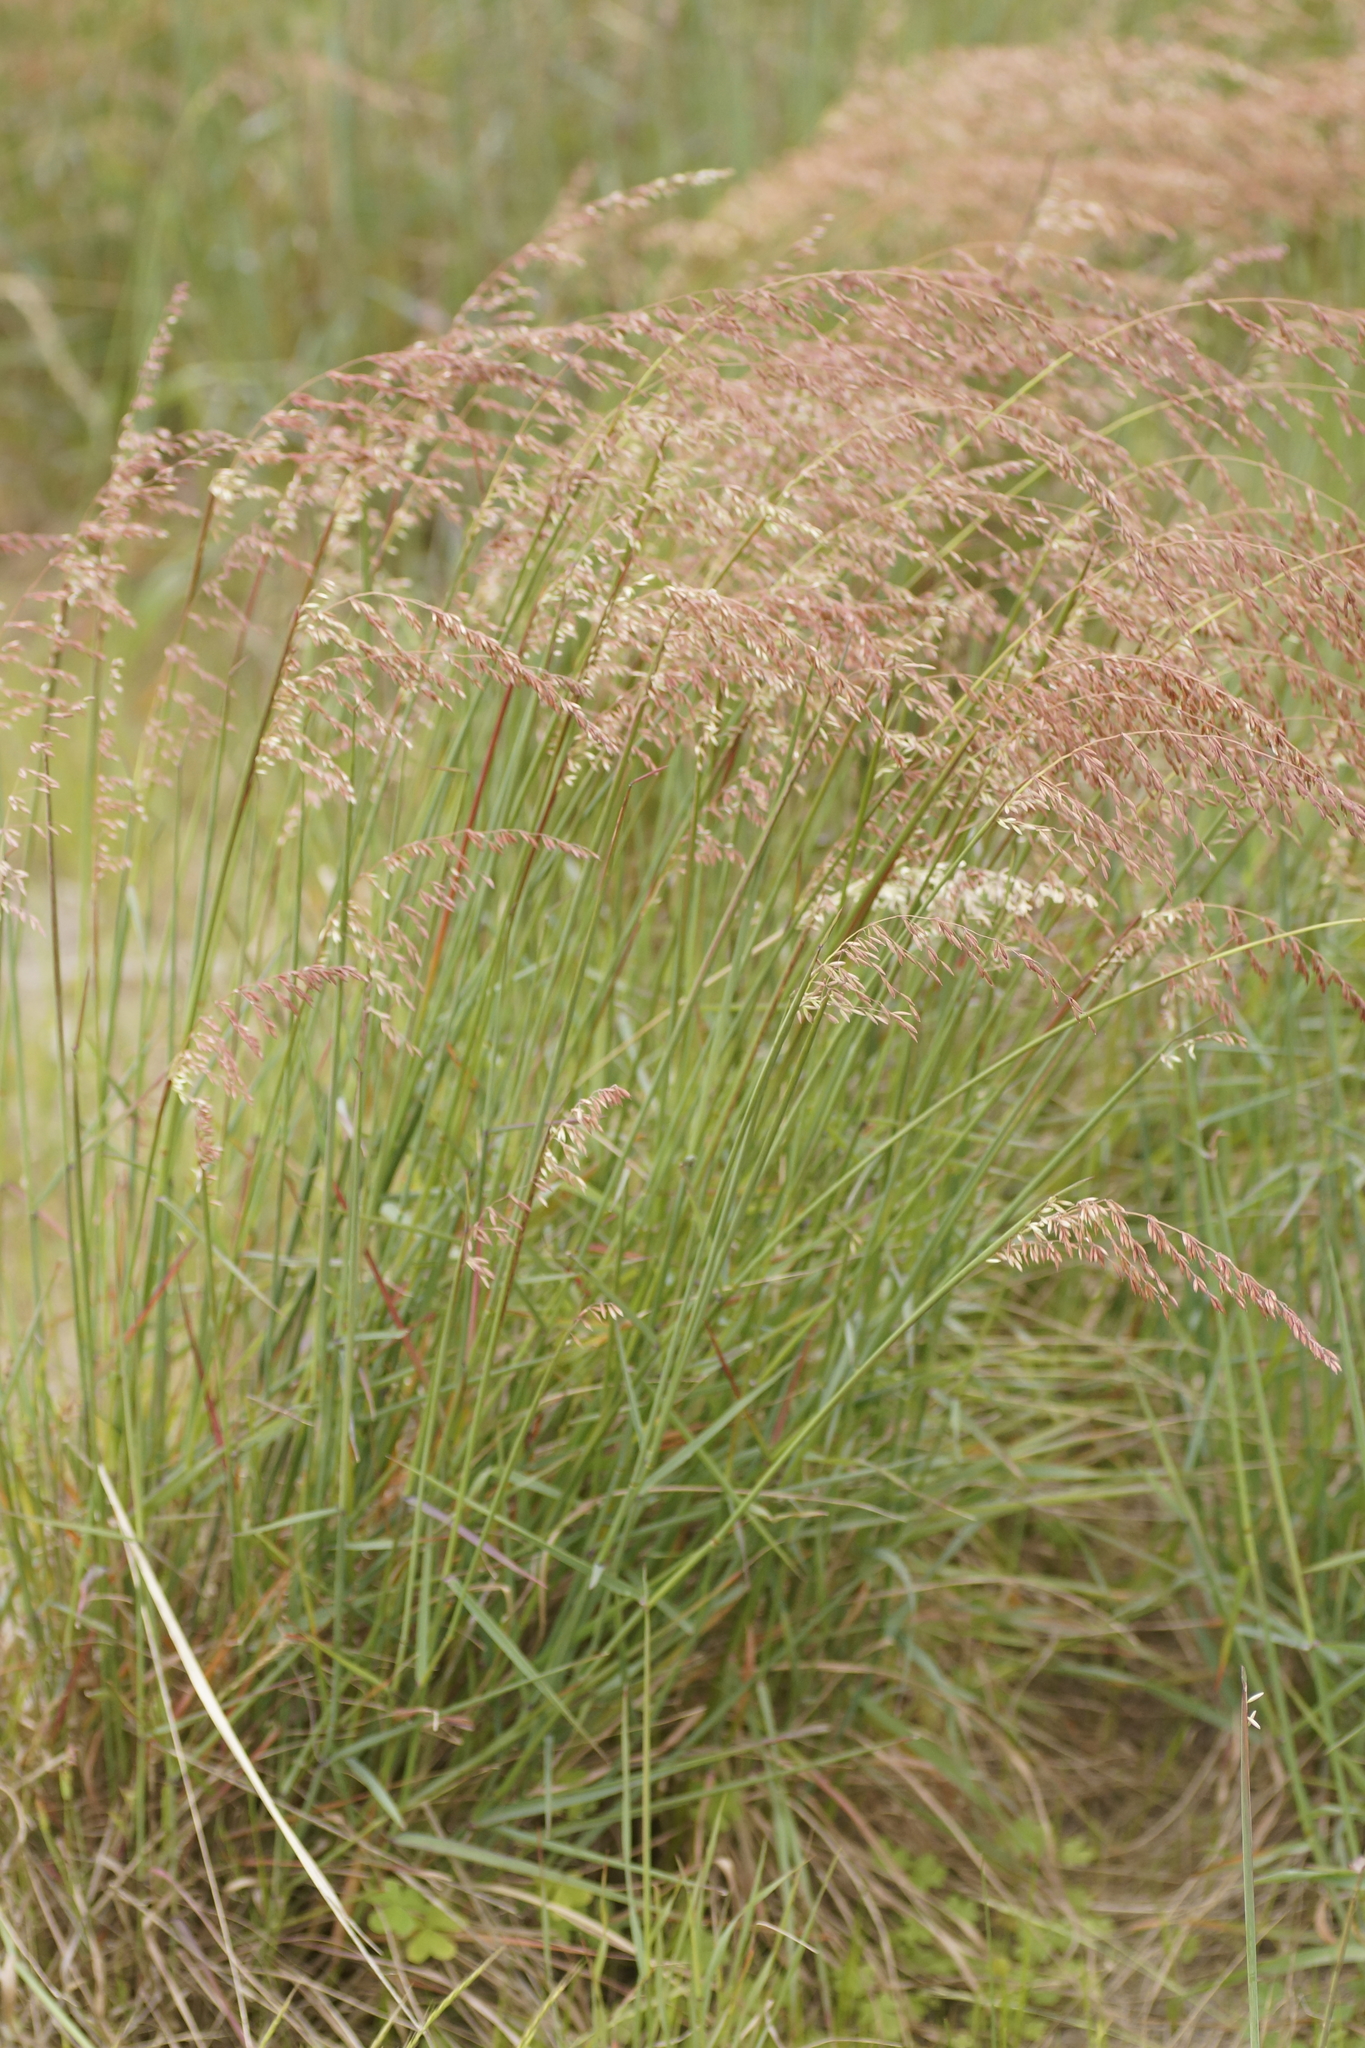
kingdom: Plantae
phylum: Tracheophyta
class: Liliopsida
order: Poales
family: Poaceae
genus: Ehrharta
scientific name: Ehrharta calycina
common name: Perennial veldtgrass
